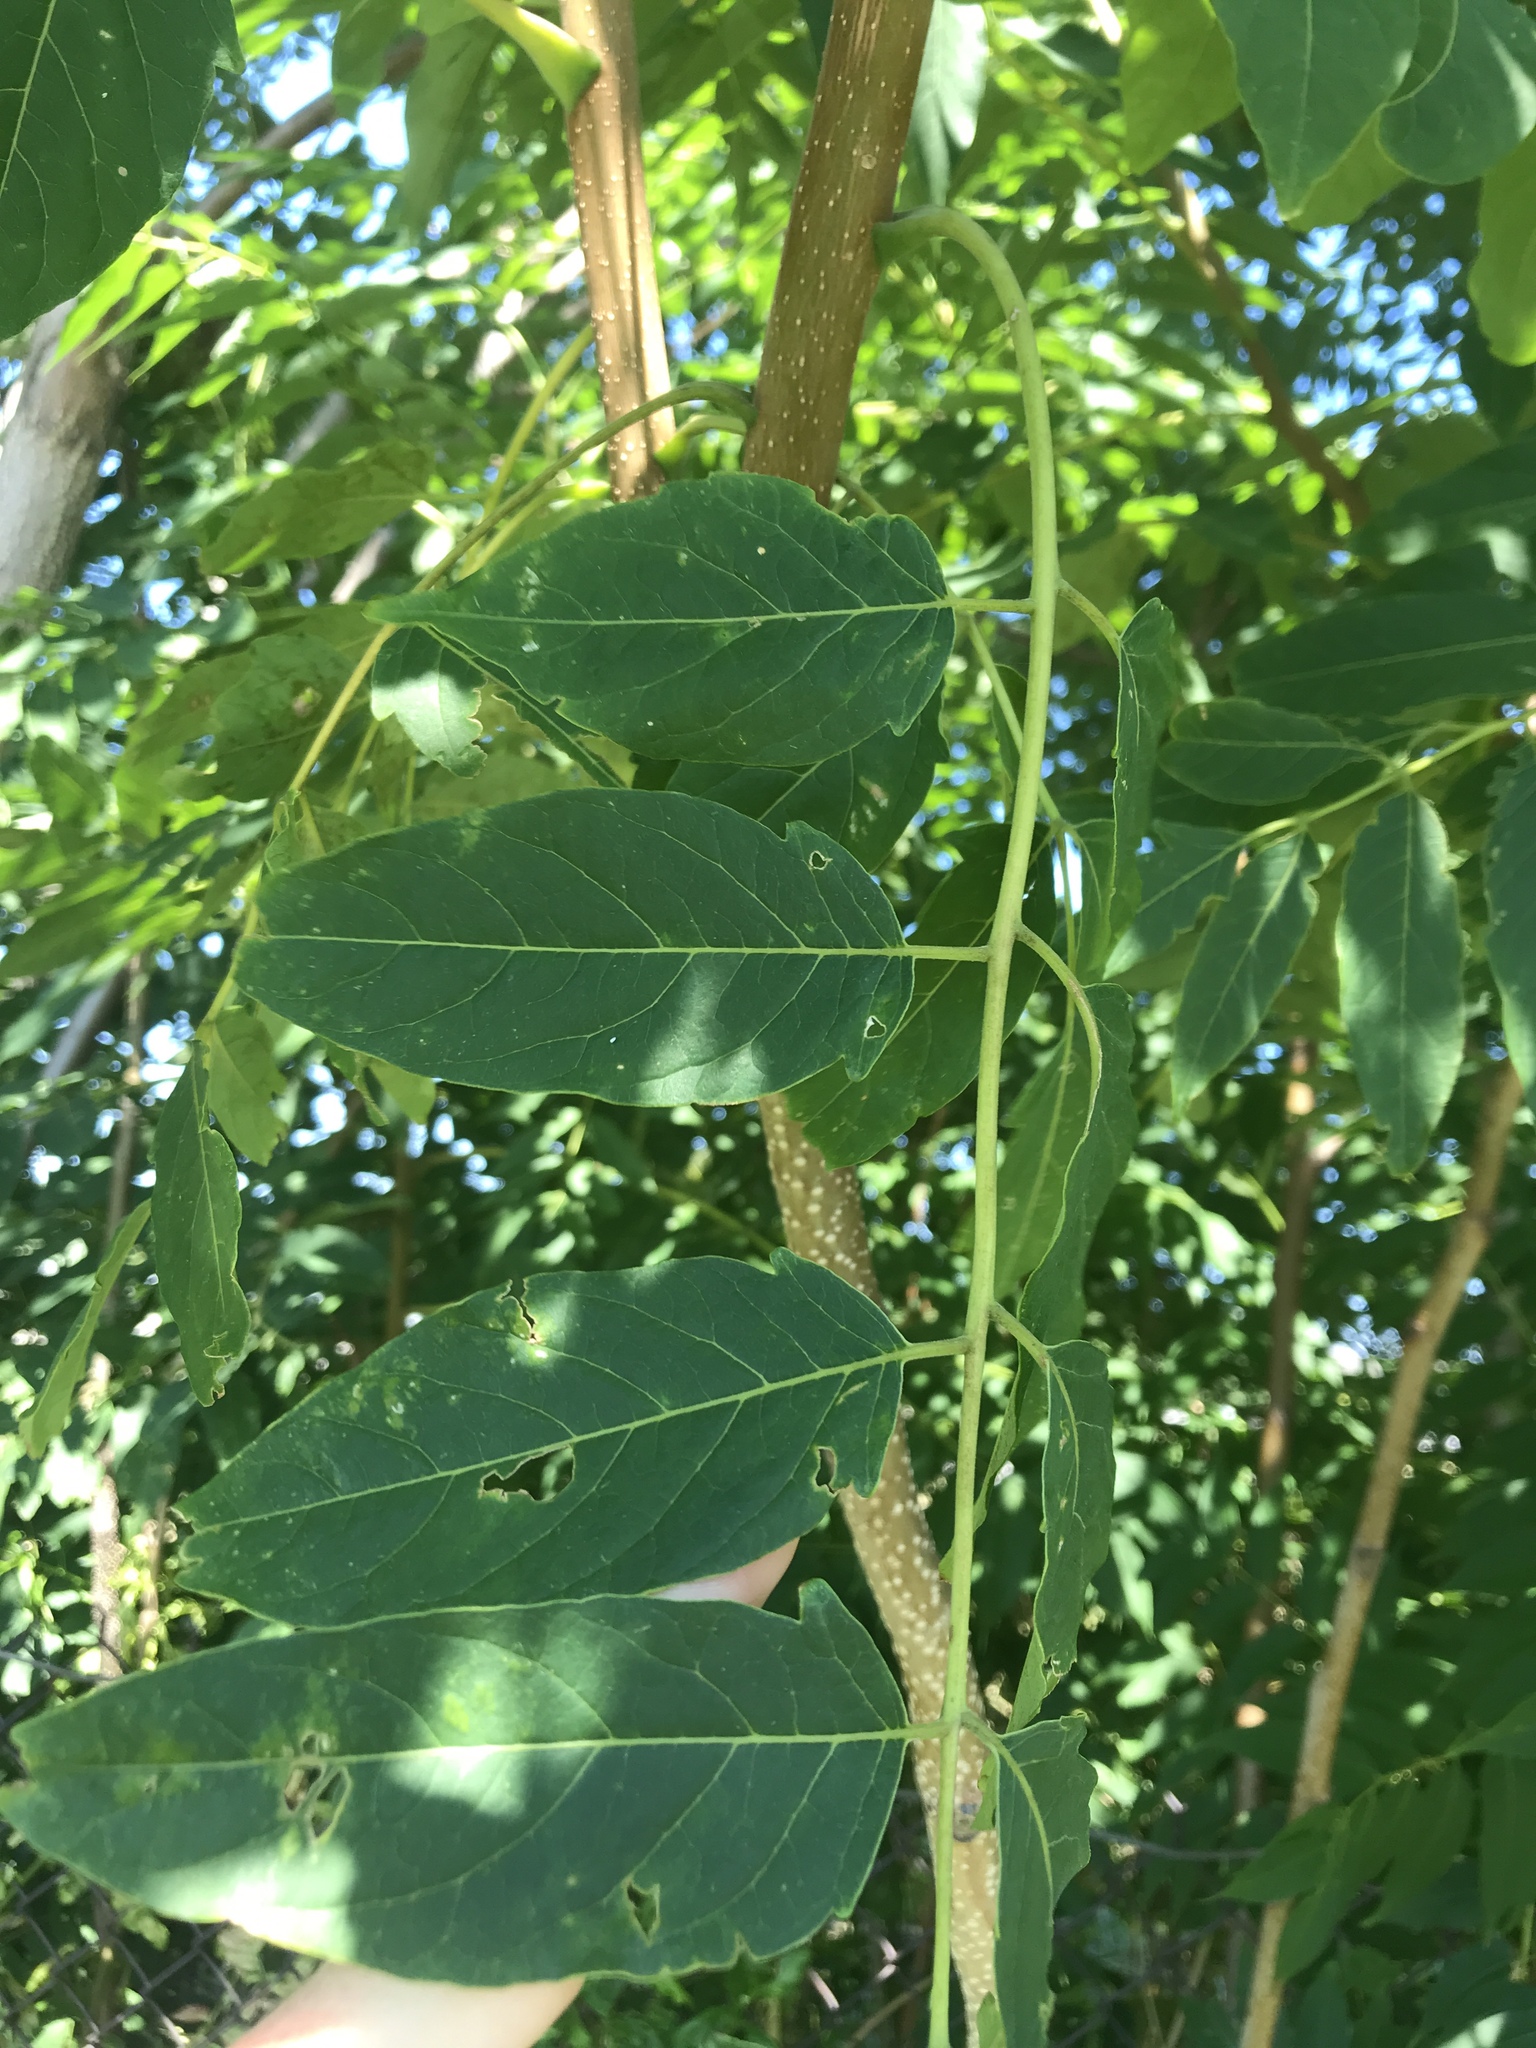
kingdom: Plantae
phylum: Tracheophyta
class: Magnoliopsida
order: Sapindales
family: Simaroubaceae
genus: Ailanthus
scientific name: Ailanthus altissima
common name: Tree-of-heaven
